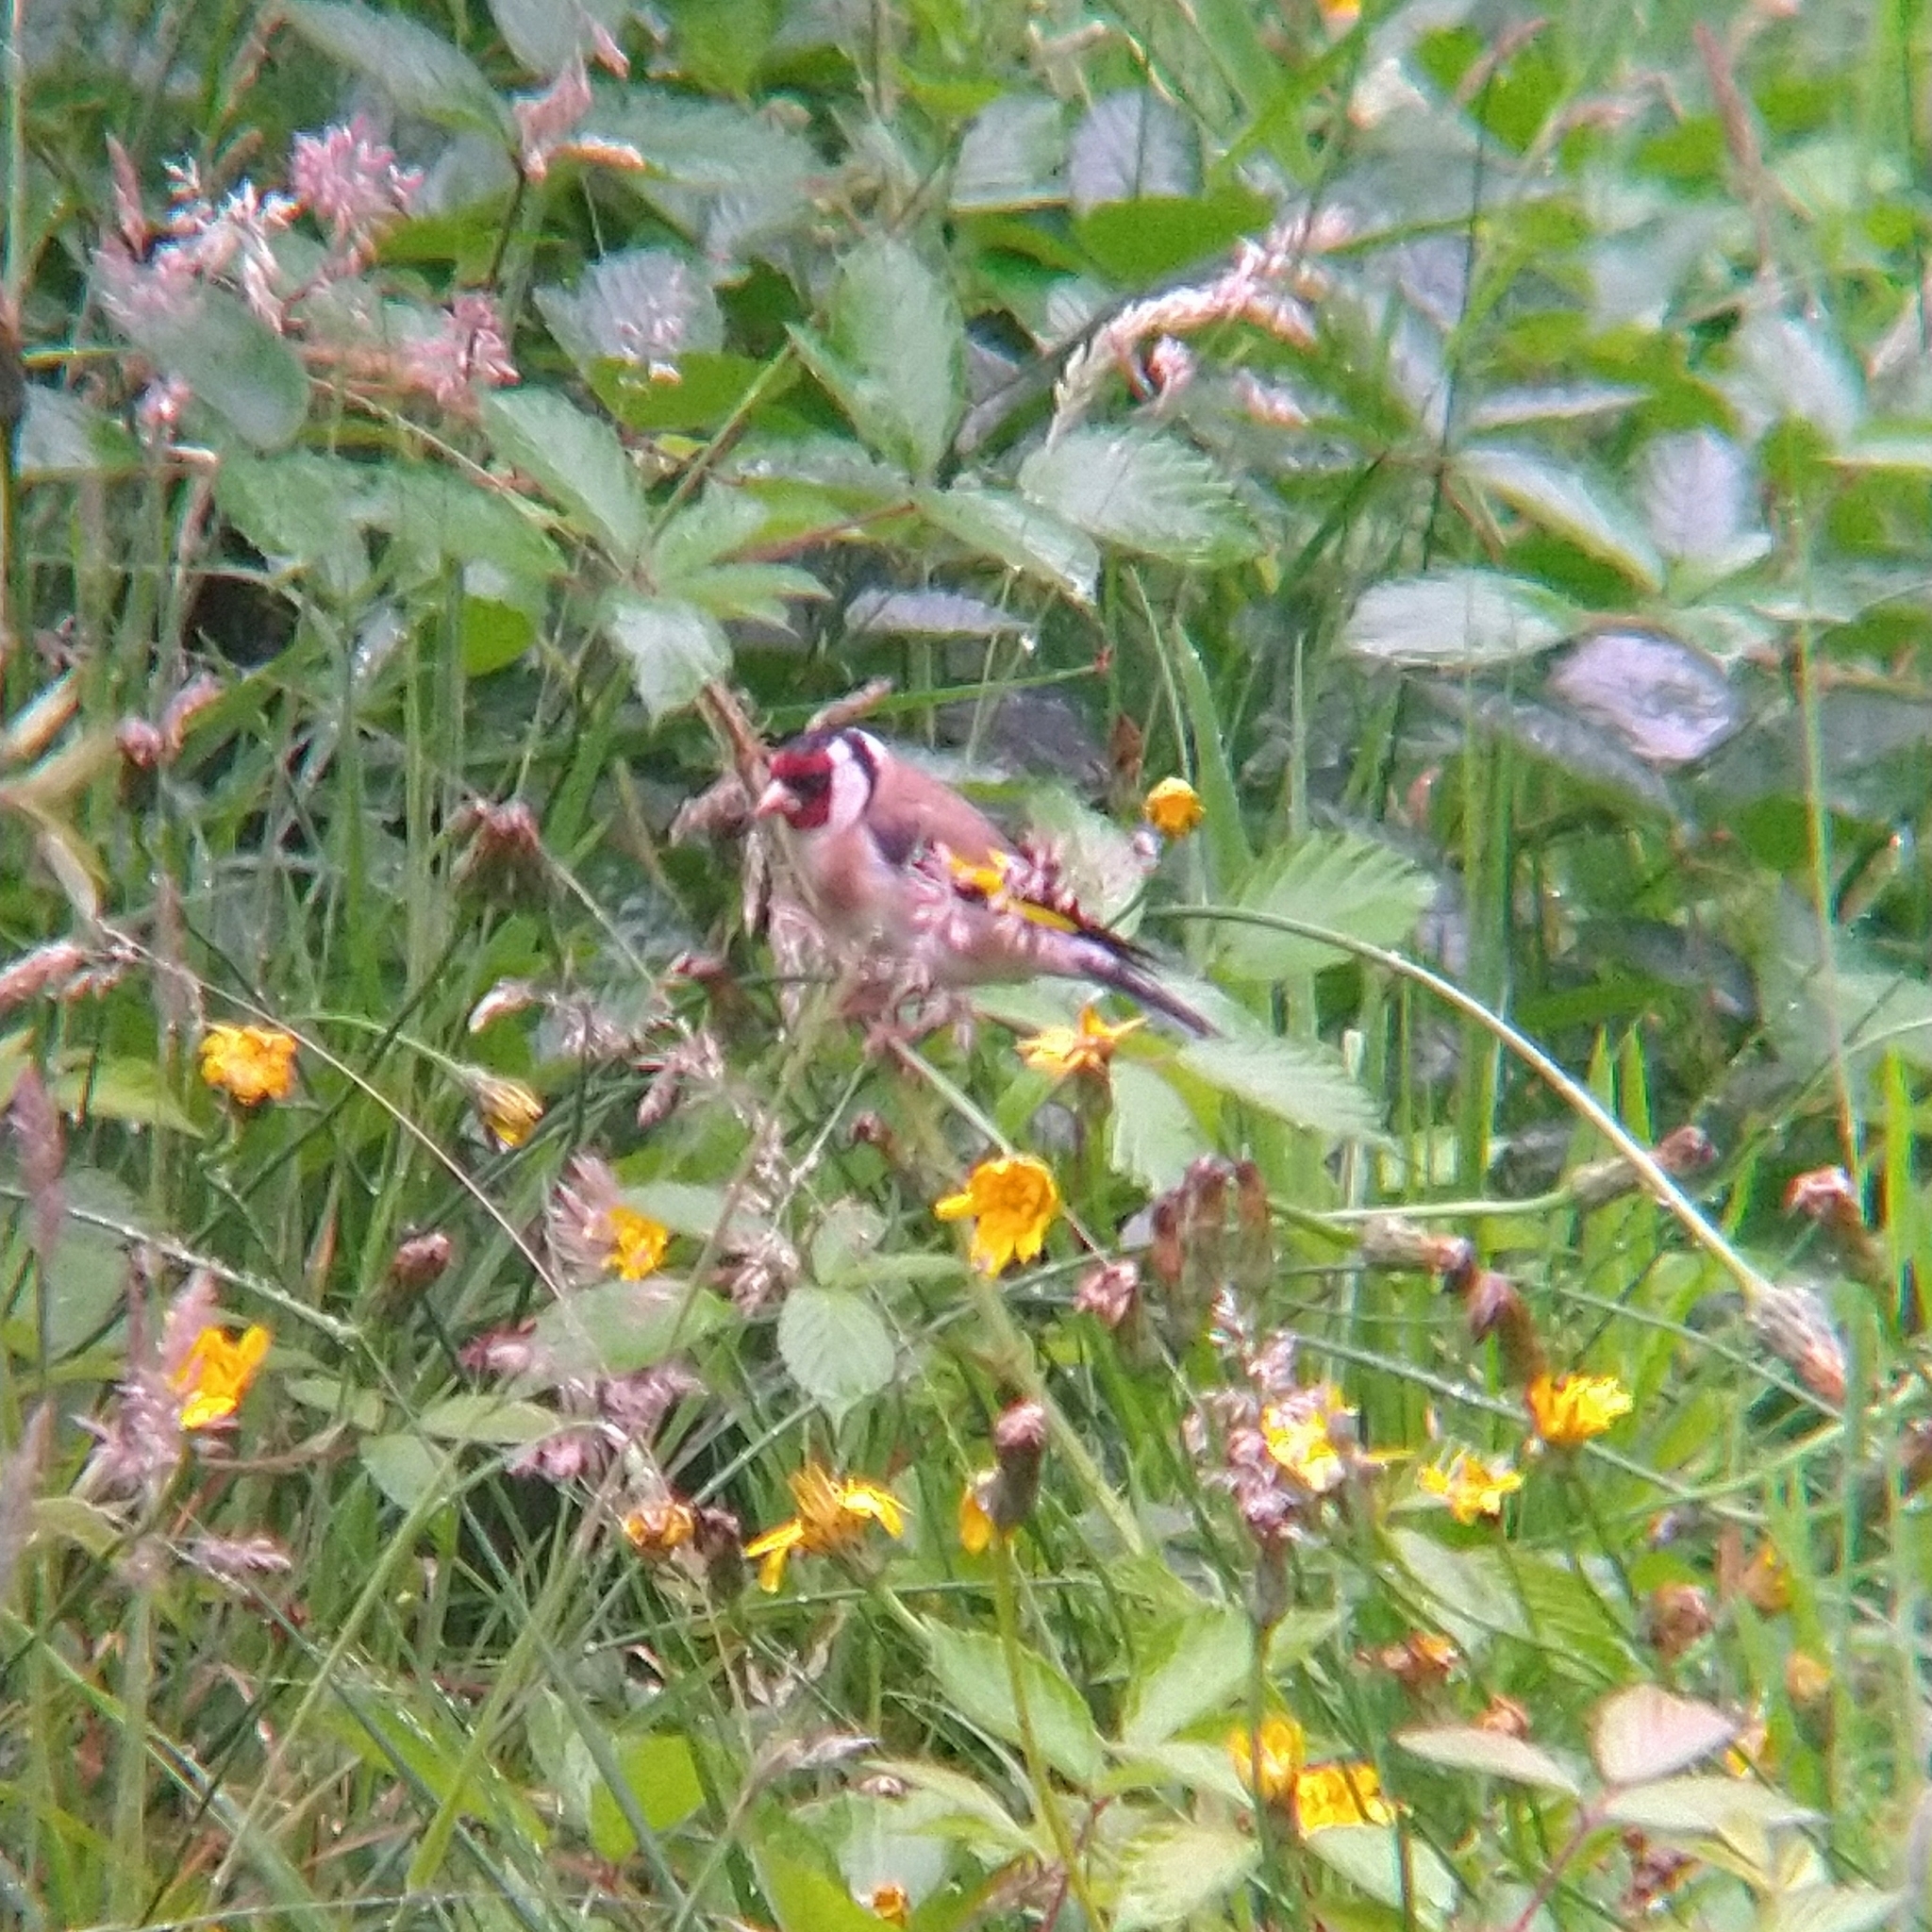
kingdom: Animalia
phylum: Chordata
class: Aves
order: Passeriformes
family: Fringillidae
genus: Carduelis
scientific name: Carduelis carduelis
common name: European goldfinch
